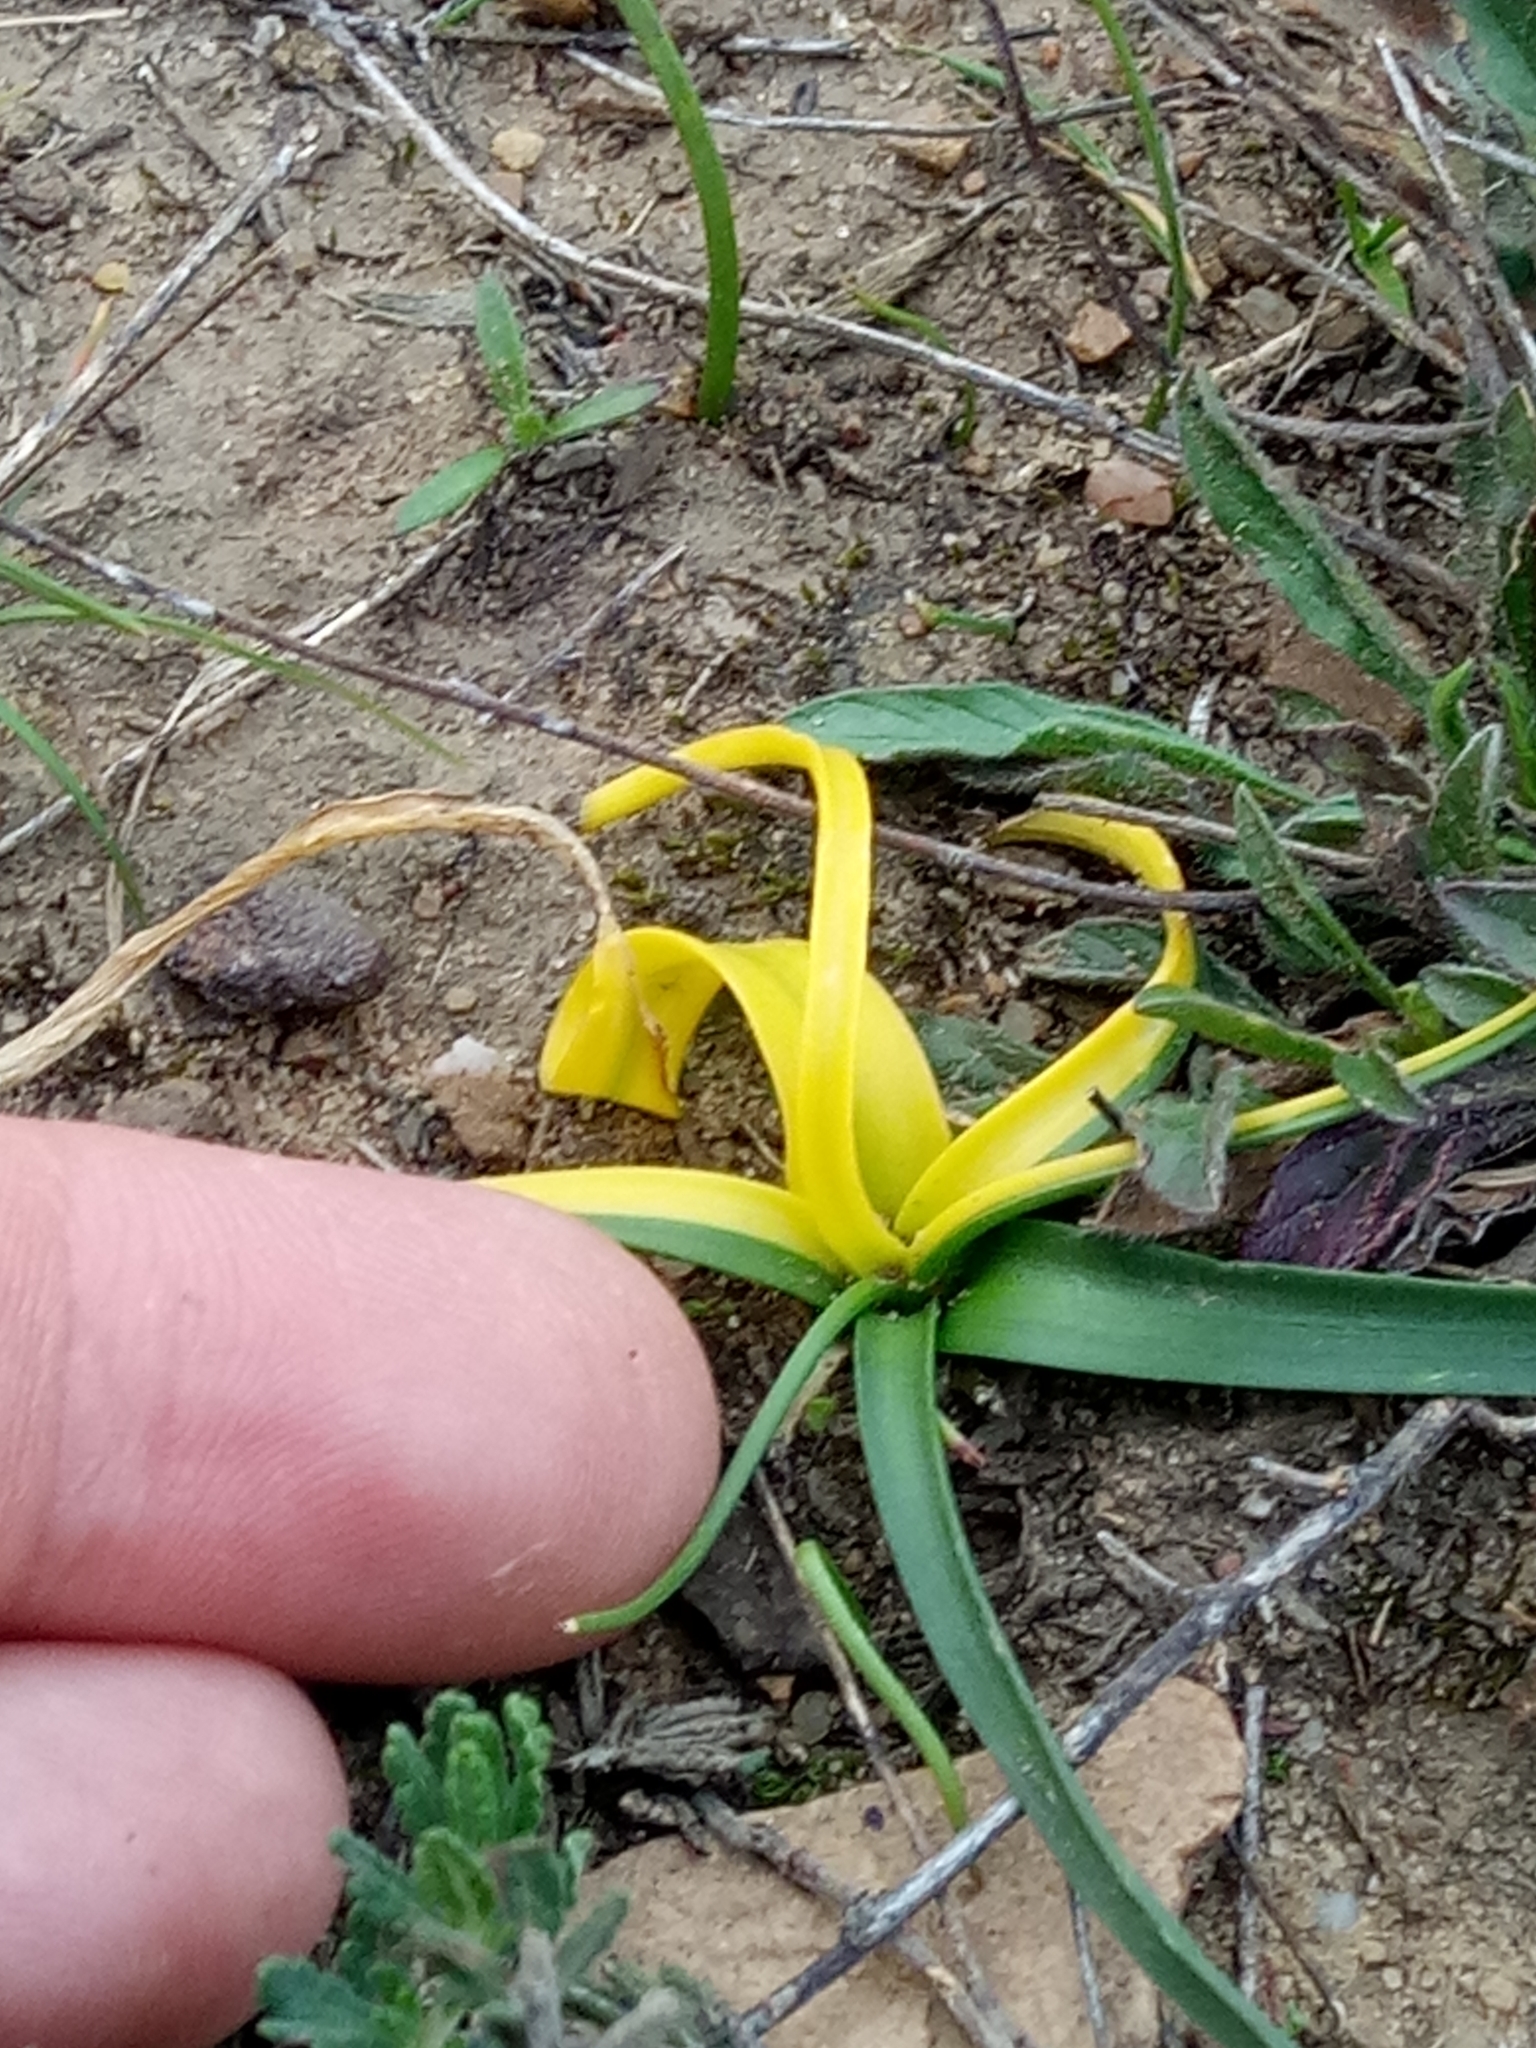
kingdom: Plantae
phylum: Tracheophyta
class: Liliopsida
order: Asparagales
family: Asparagaceae
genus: Prospero
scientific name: Prospero fallax
